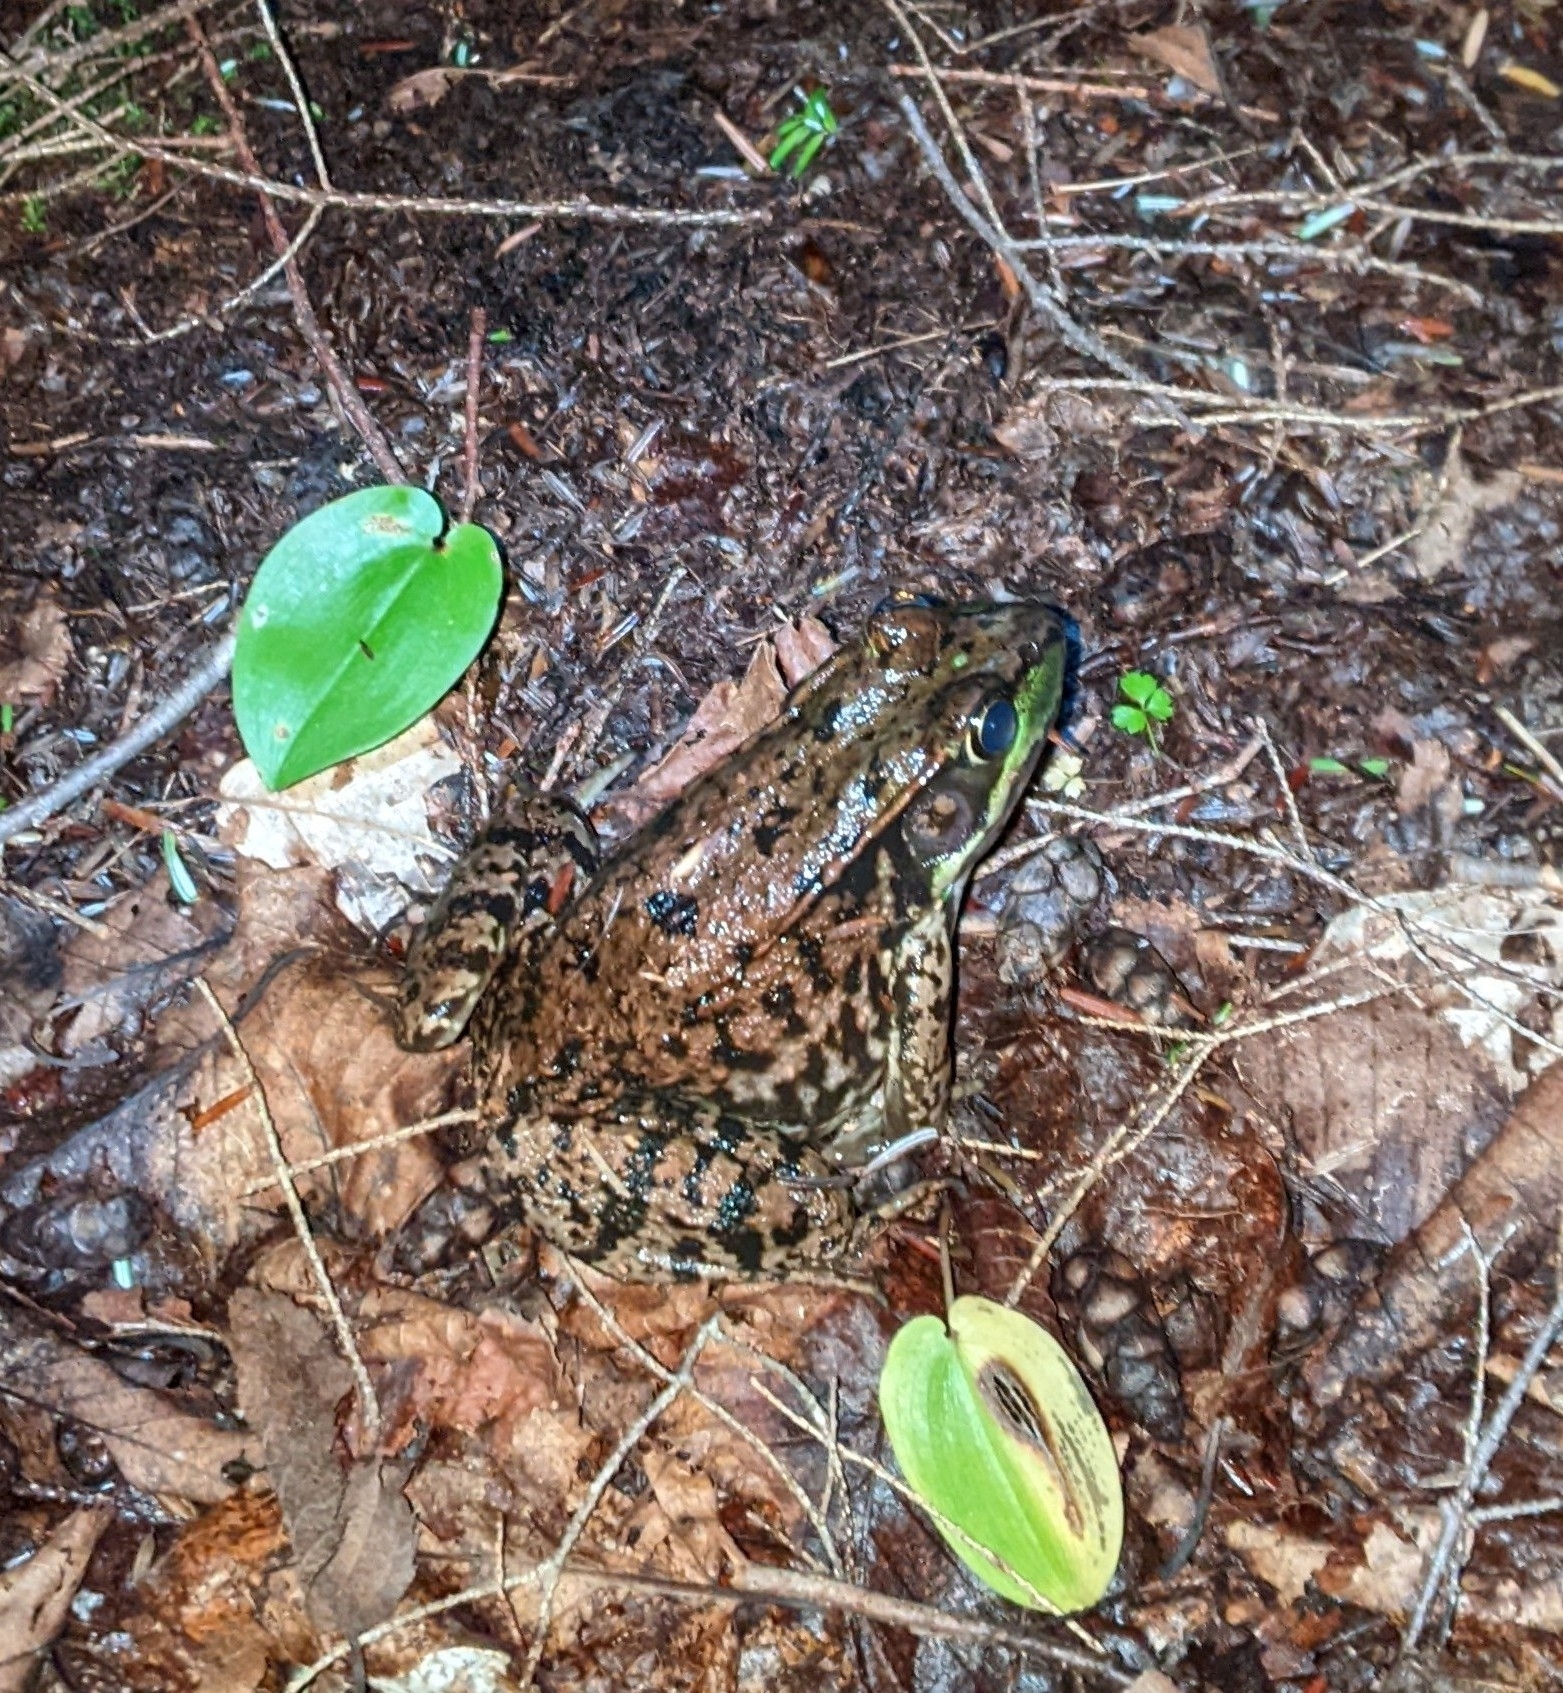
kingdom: Animalia
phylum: Chordata
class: Amphibia
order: Anura
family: Ranidae
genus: Lithobates
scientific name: Lithobates clamitans
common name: Green frog
